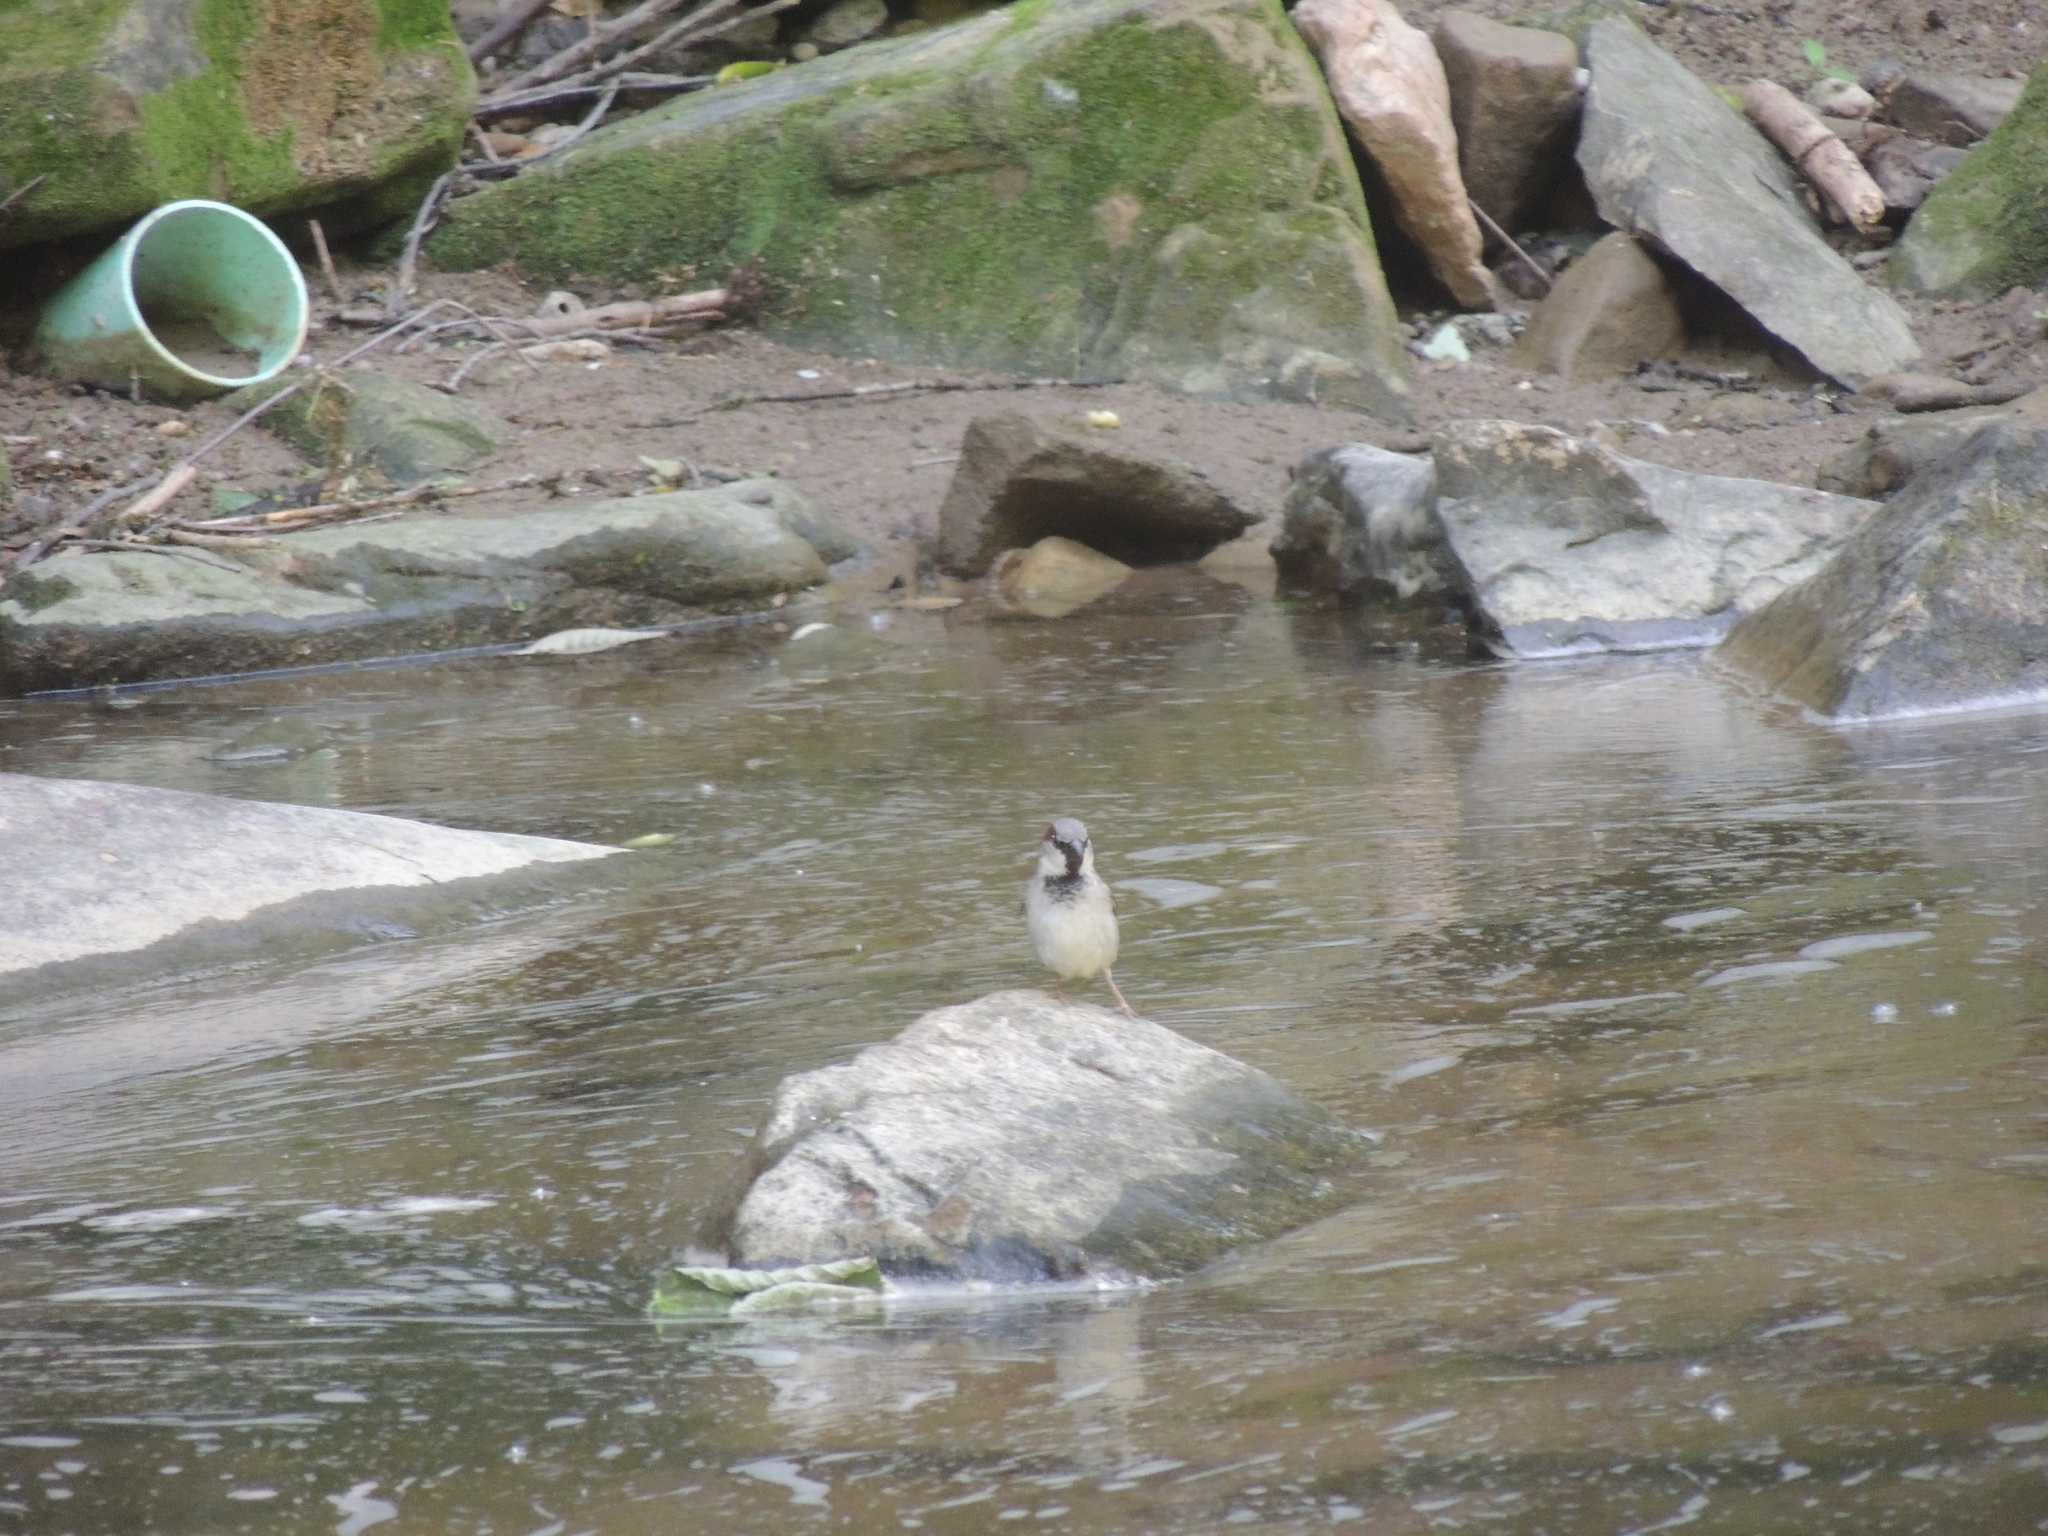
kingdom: Animalia
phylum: Chordata
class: Aves
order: Passeriformes
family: Passeridae
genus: Passer
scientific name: Passer domesticus
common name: House sparrow
